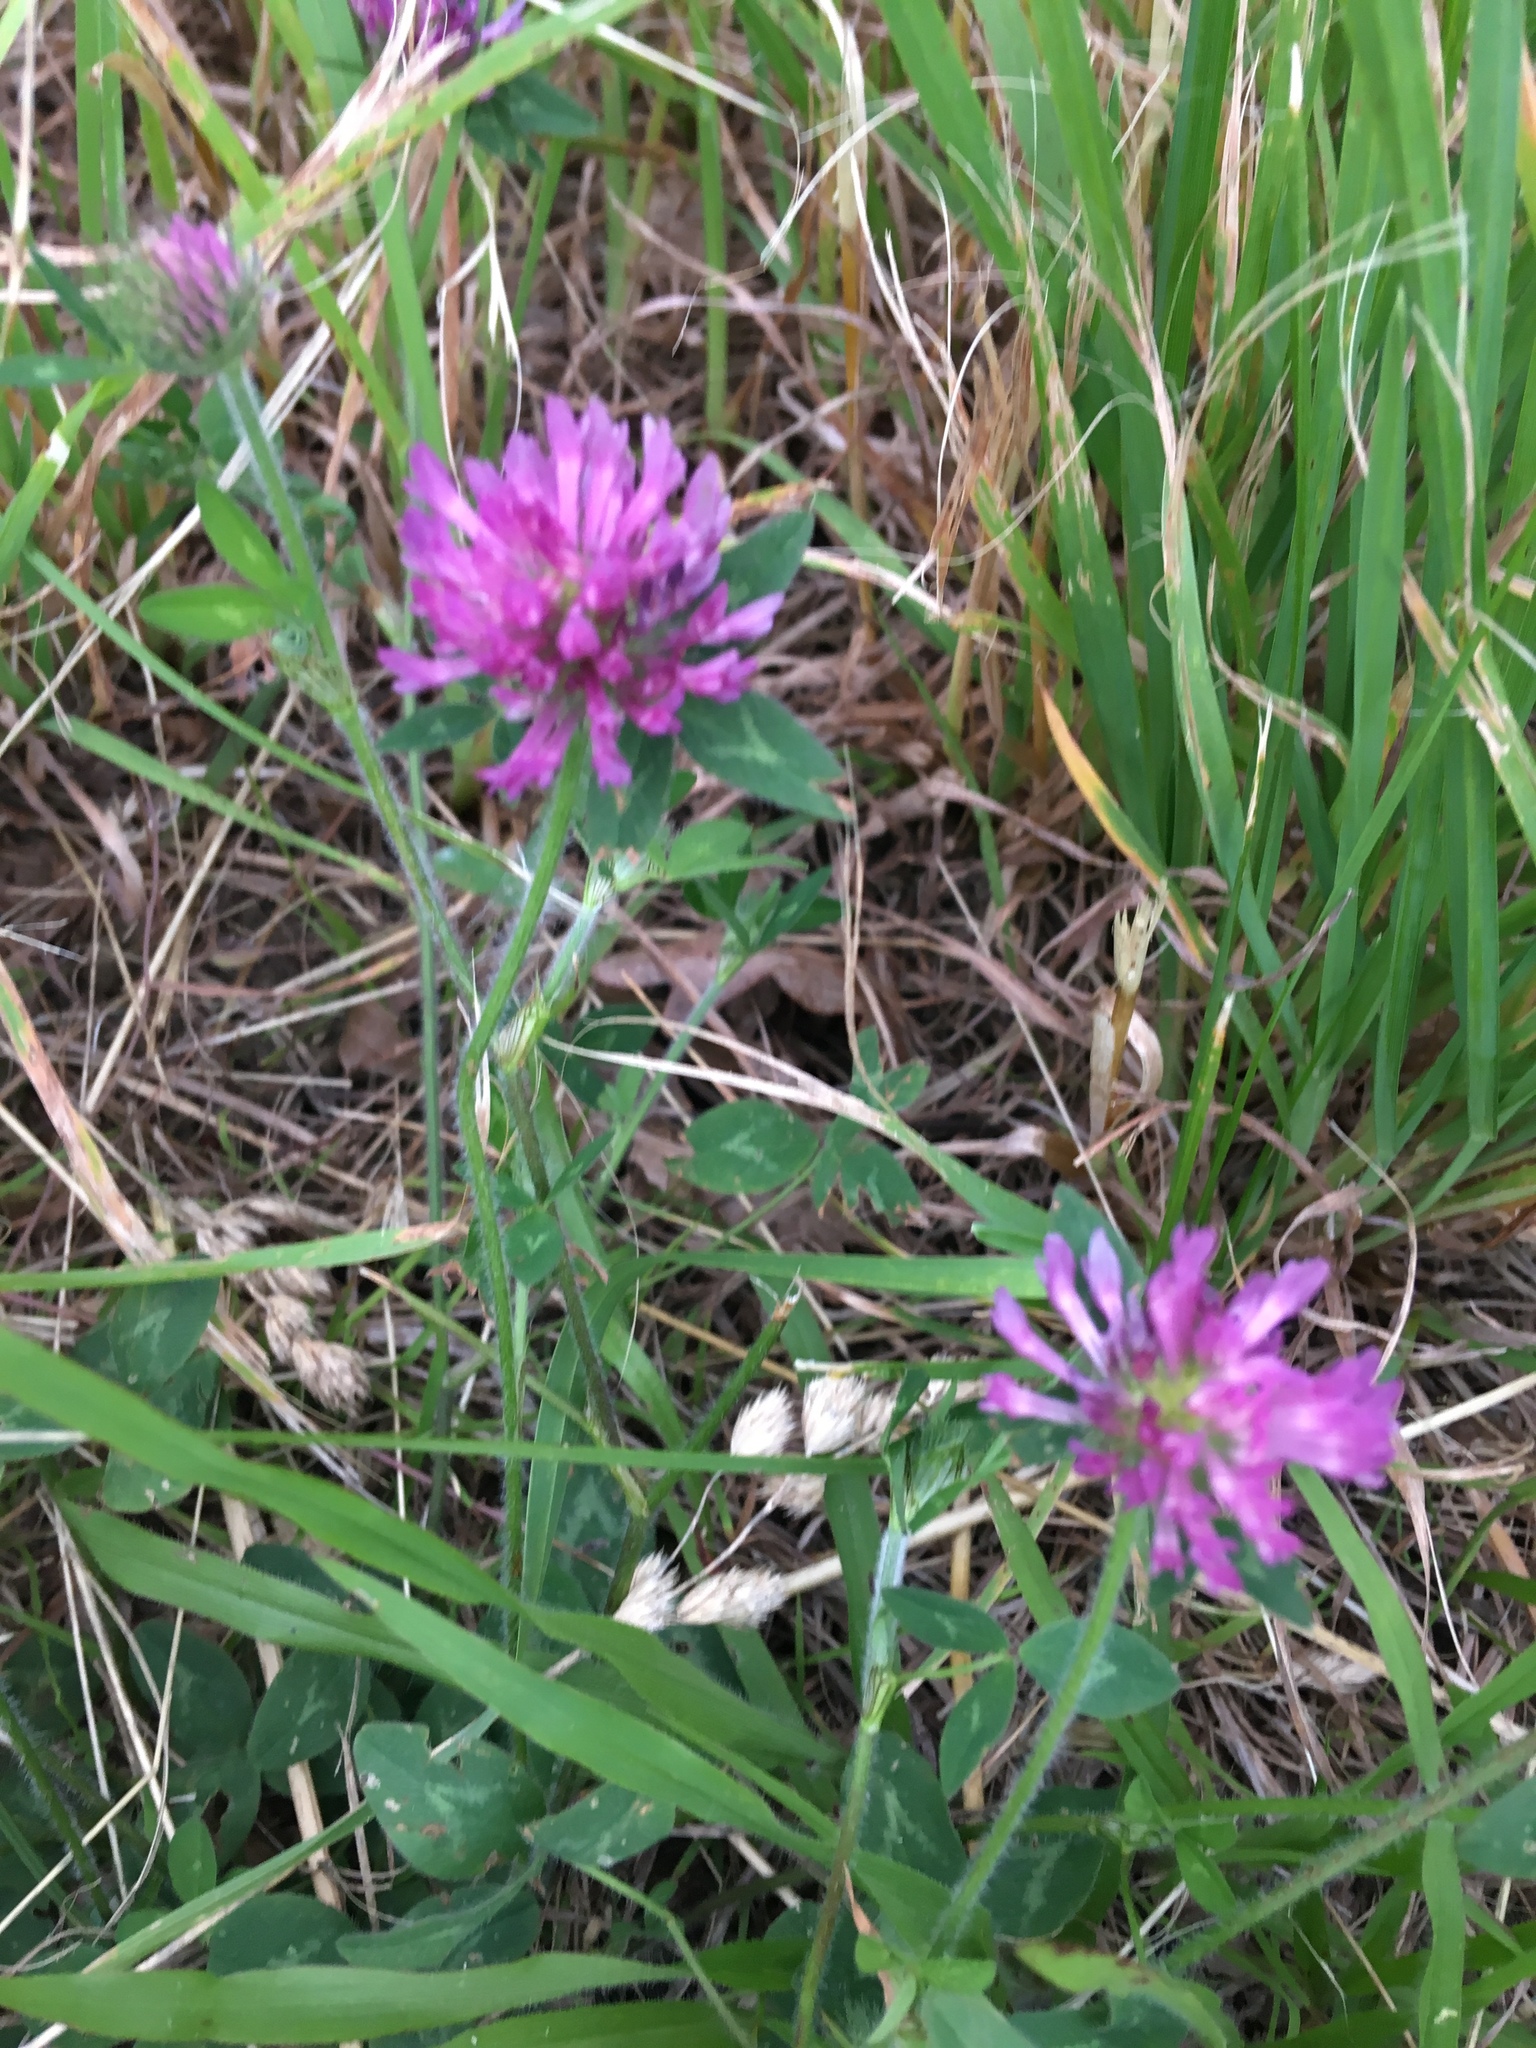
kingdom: Plantae
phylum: Tracheophyta
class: Magnoliopsida
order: Fabales
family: Fabaceae
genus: Trifolium
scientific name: Trifolium pratense
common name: Red clover
